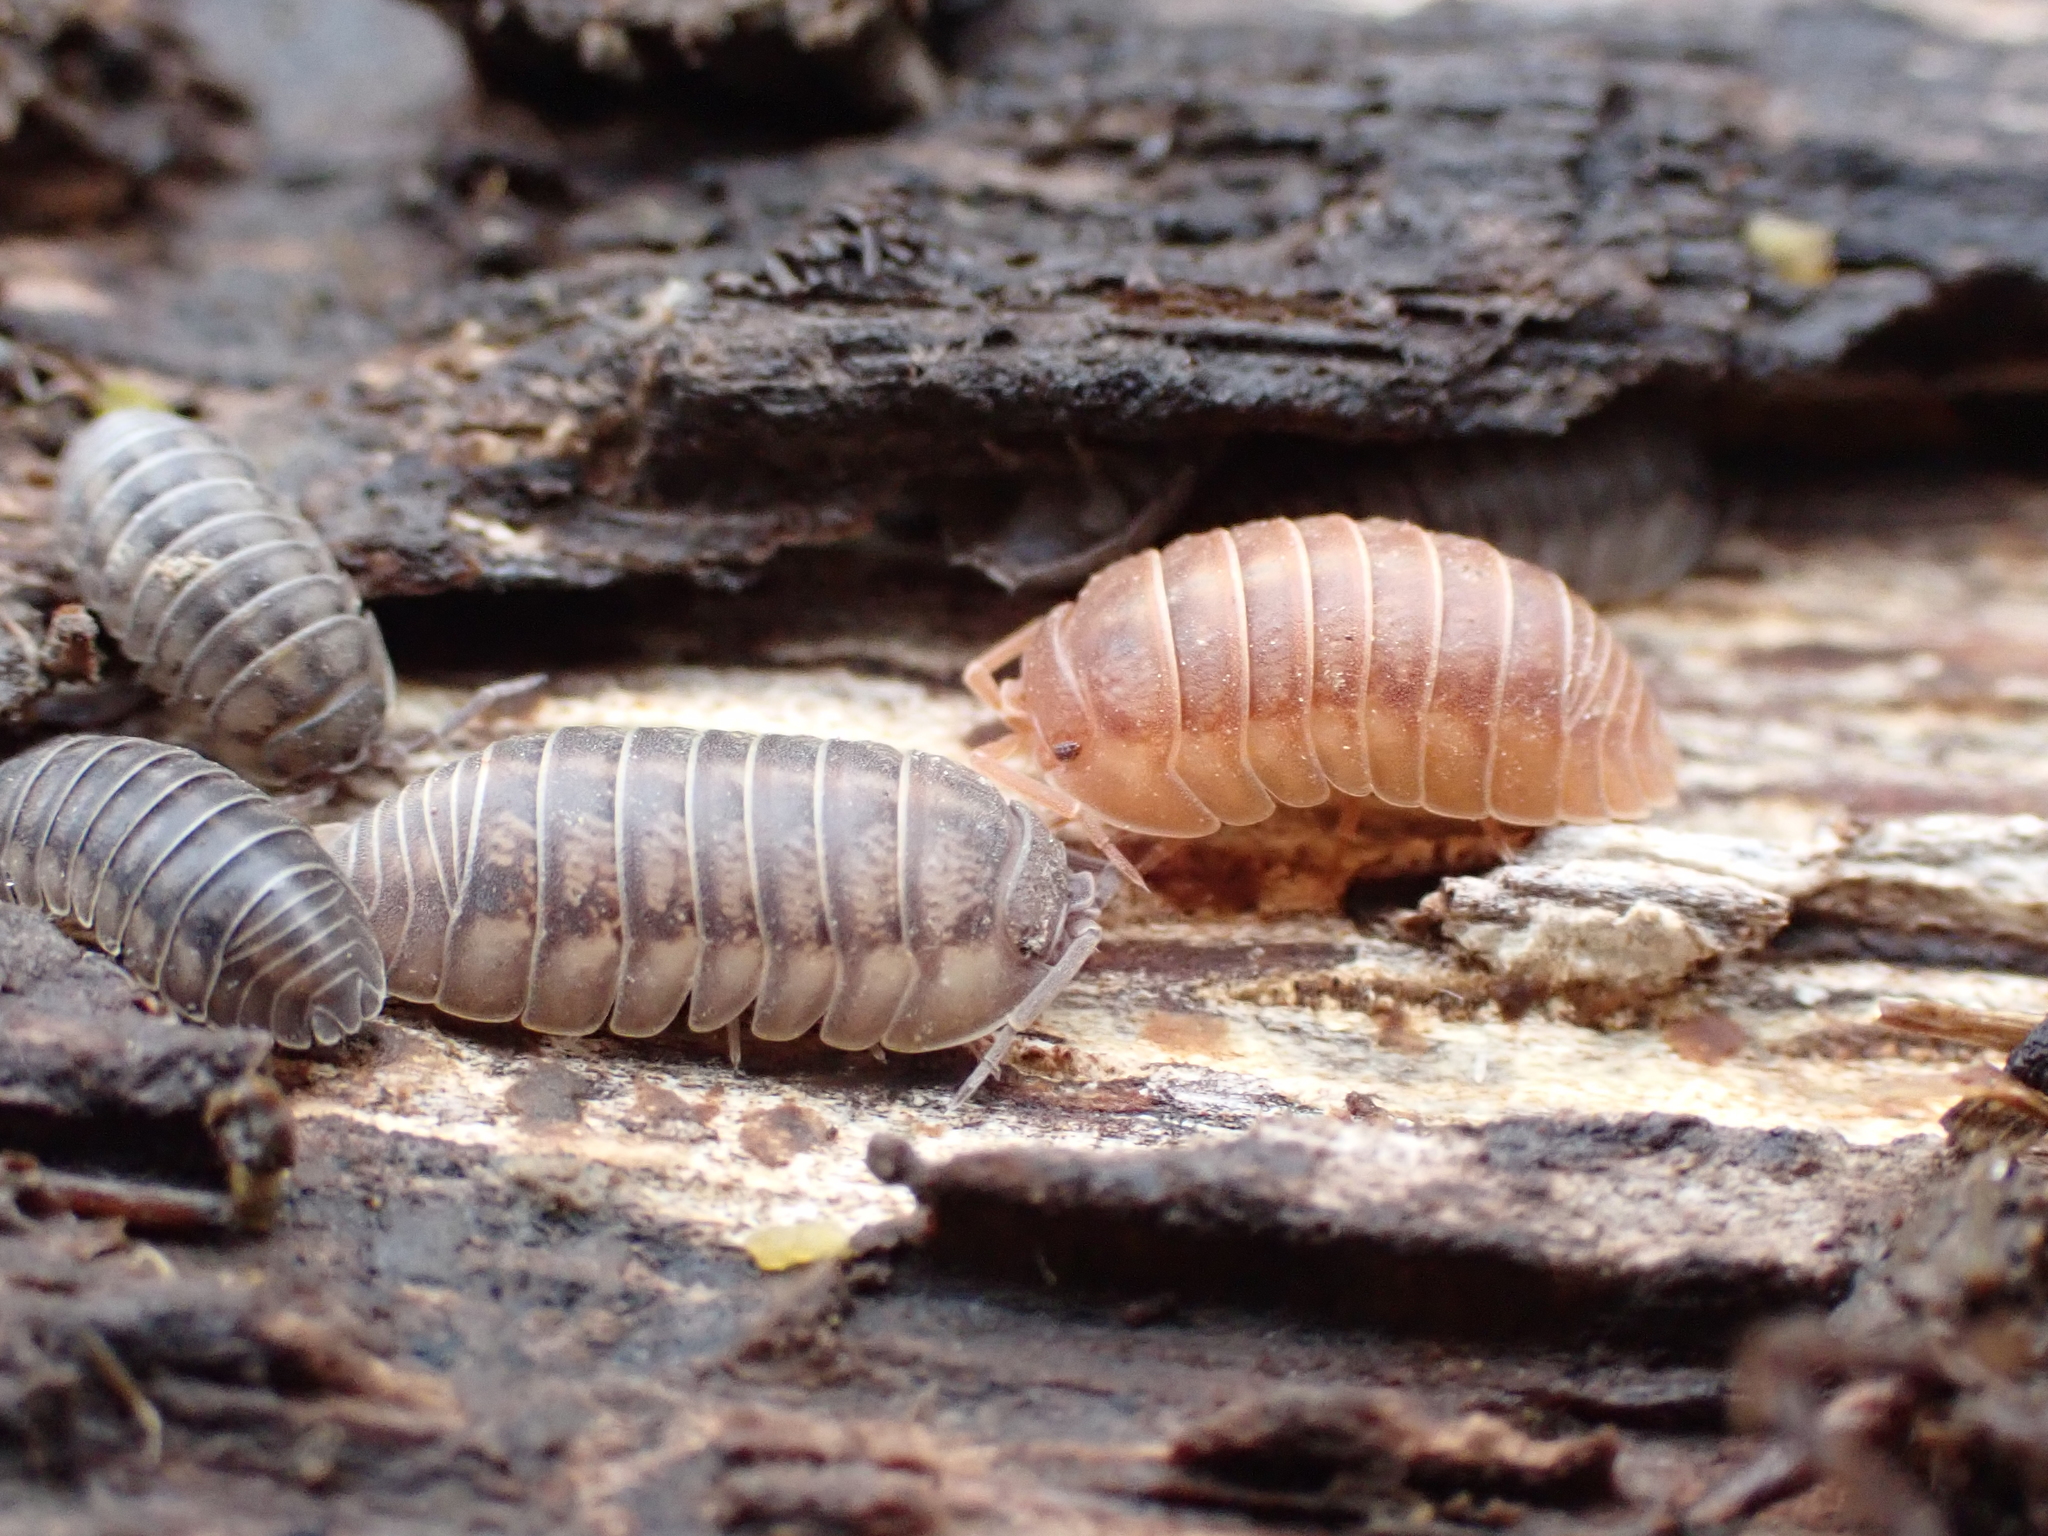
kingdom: Animalia
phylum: Arthropoda
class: Malacostraca
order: Isopoda
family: Armadillidiidae
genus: Armadillidium
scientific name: Armadillidium nasatum
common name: Isopod
